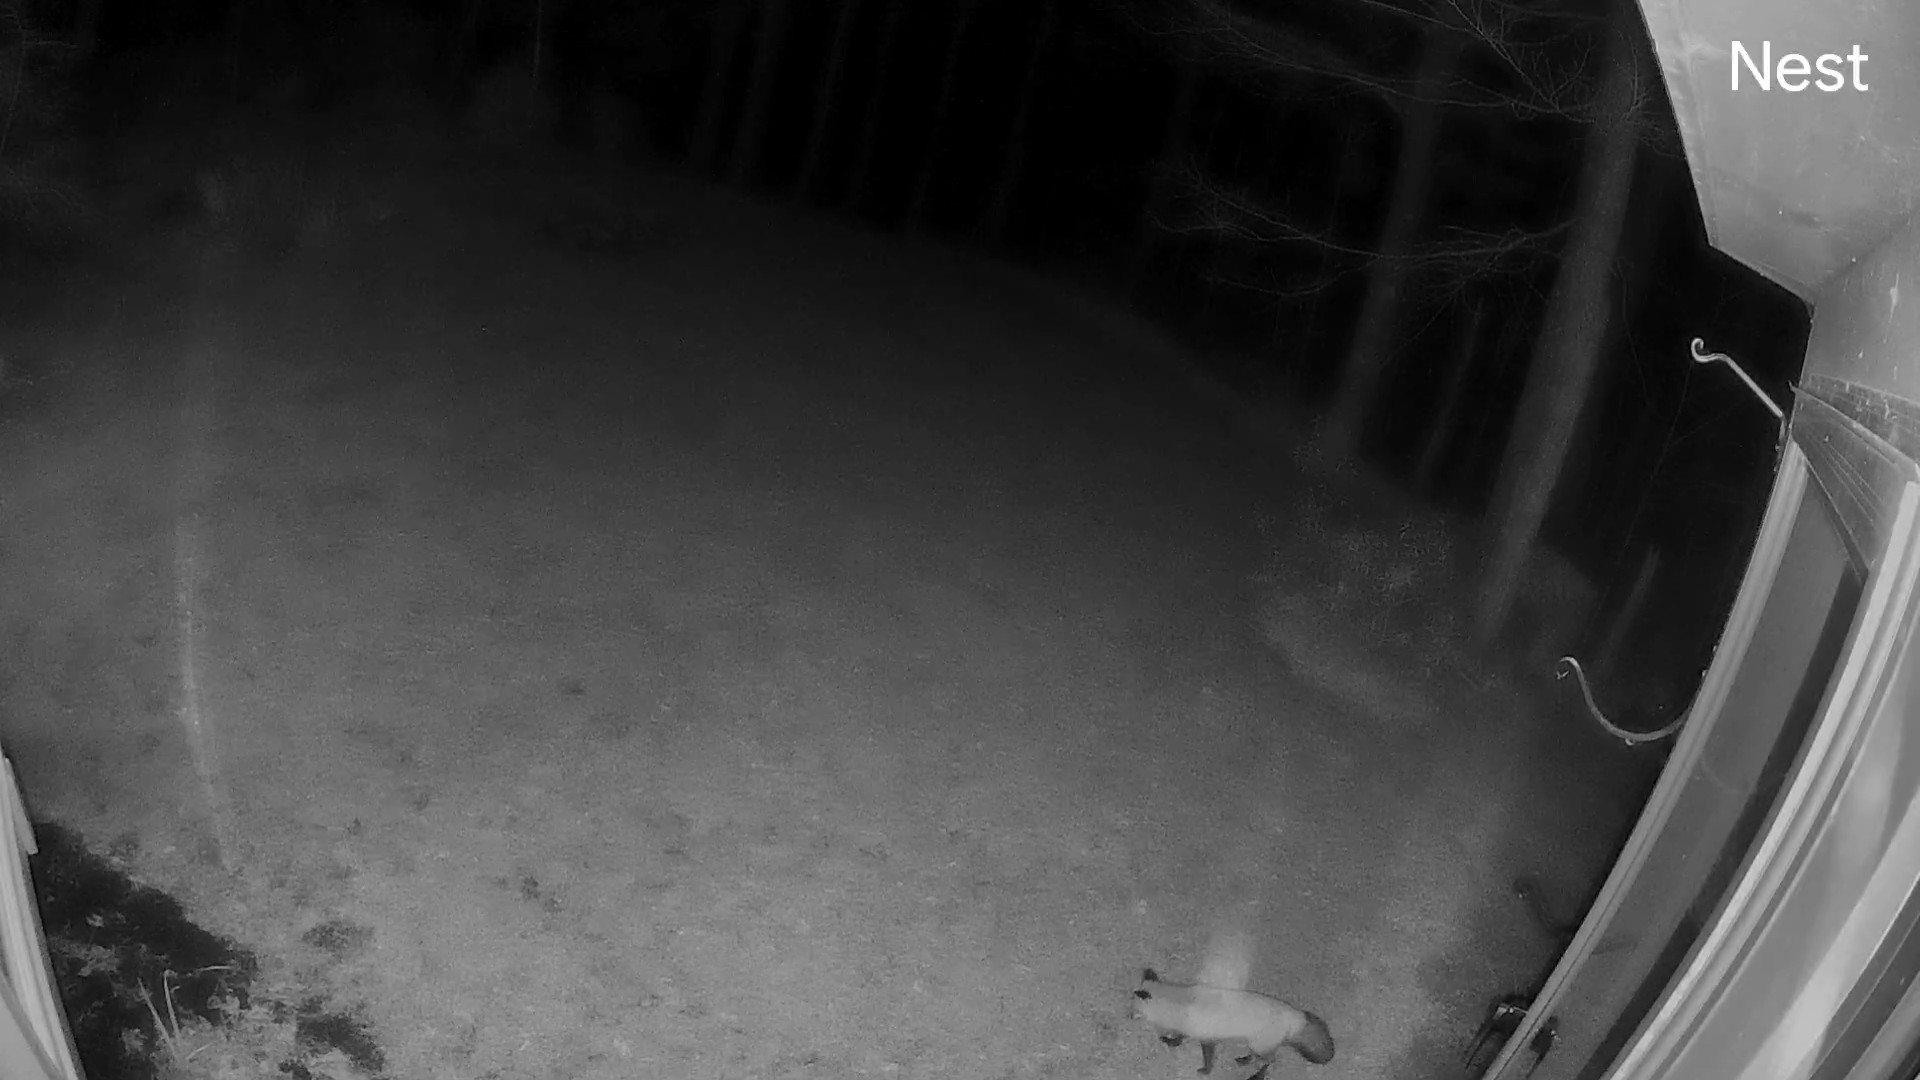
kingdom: Animalia
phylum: Chordata
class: Mammalia
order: Carnivora
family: Canidae
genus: Vulpes
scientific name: Vulpes vulpes
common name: Red fox
